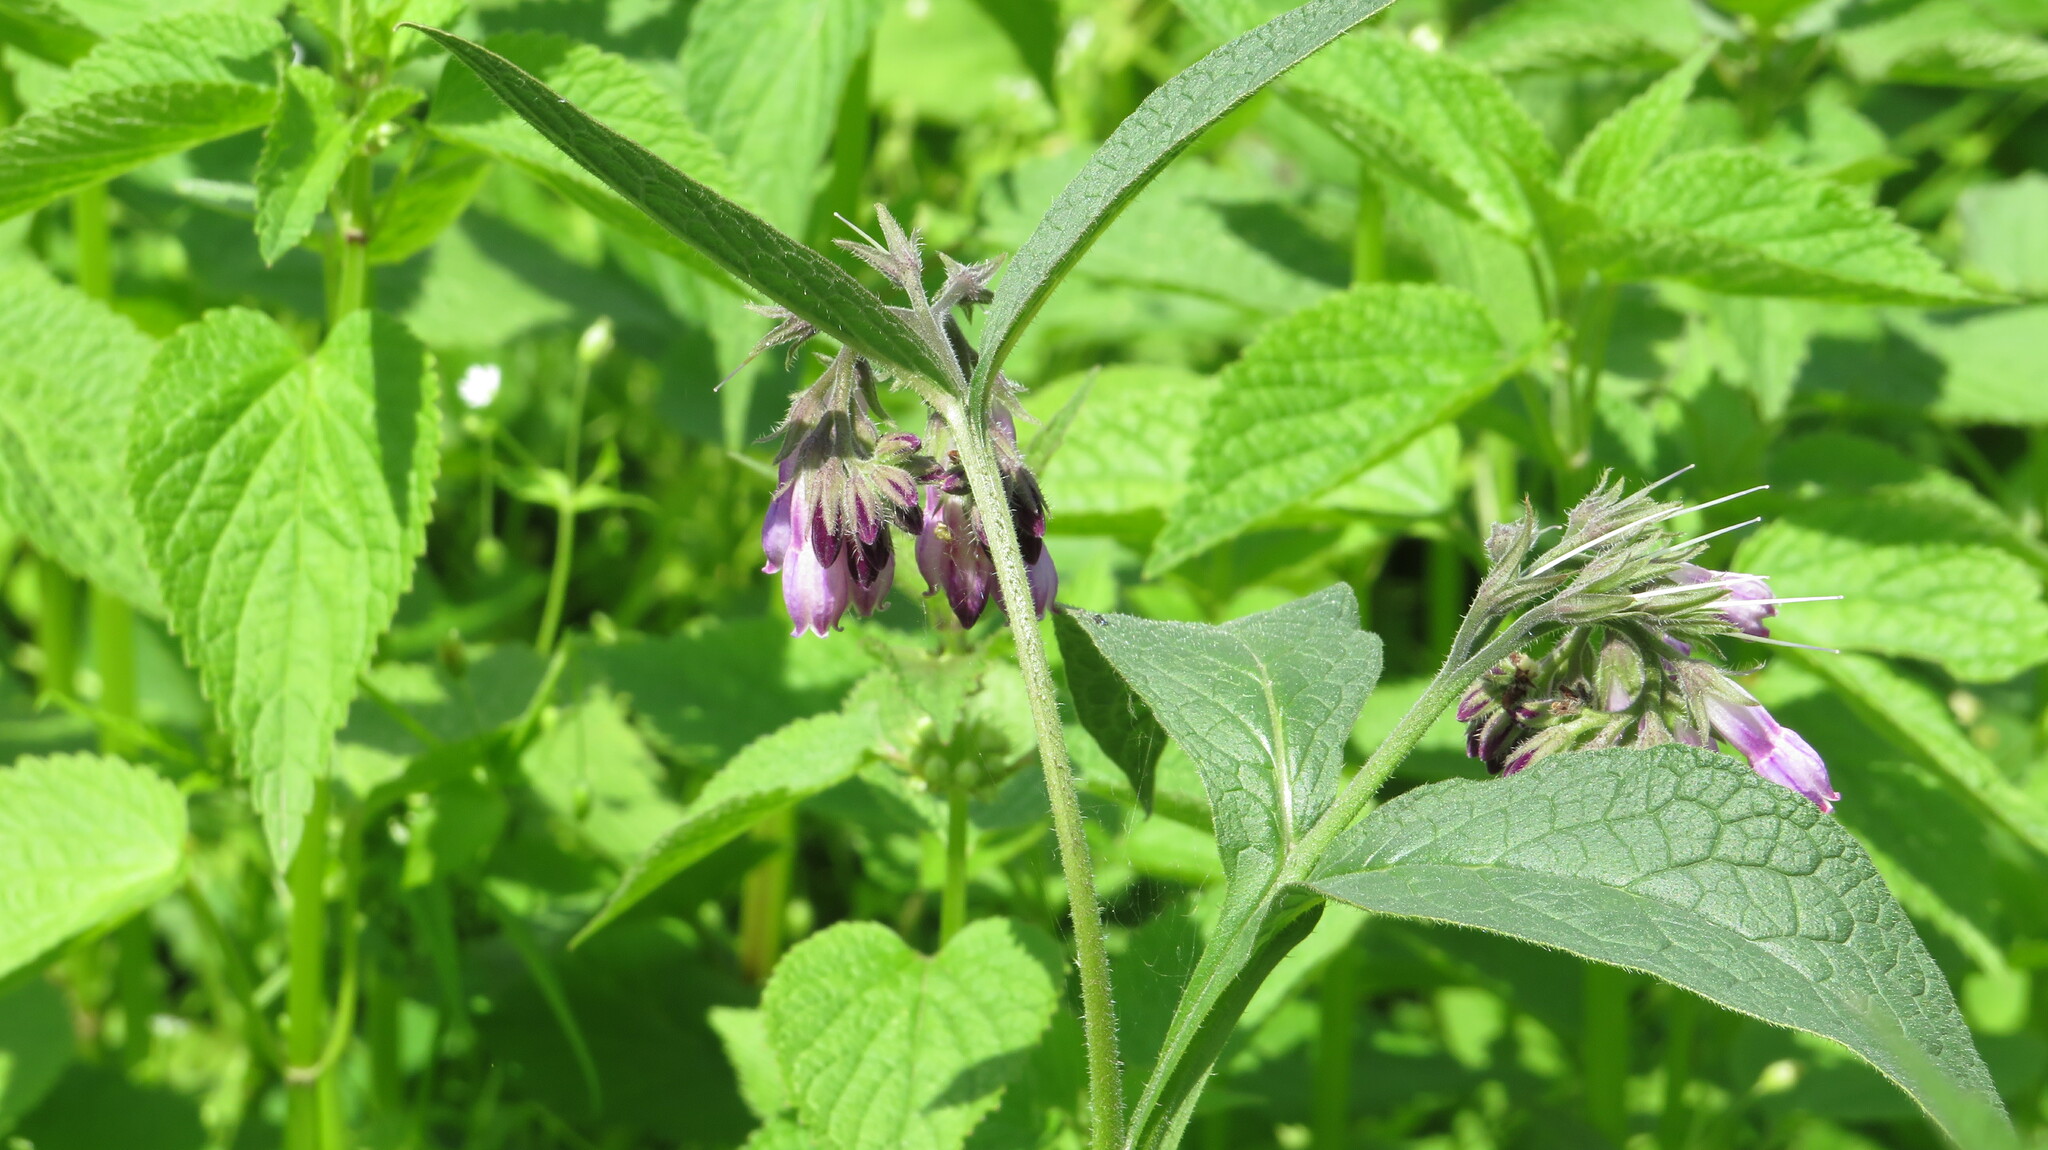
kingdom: Plantae
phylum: Tracheophyta
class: Magnoliopsida
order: Boraginales
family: Boraginaceae
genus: Symphytum
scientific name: Symphytum officinale
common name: Common comfrey
